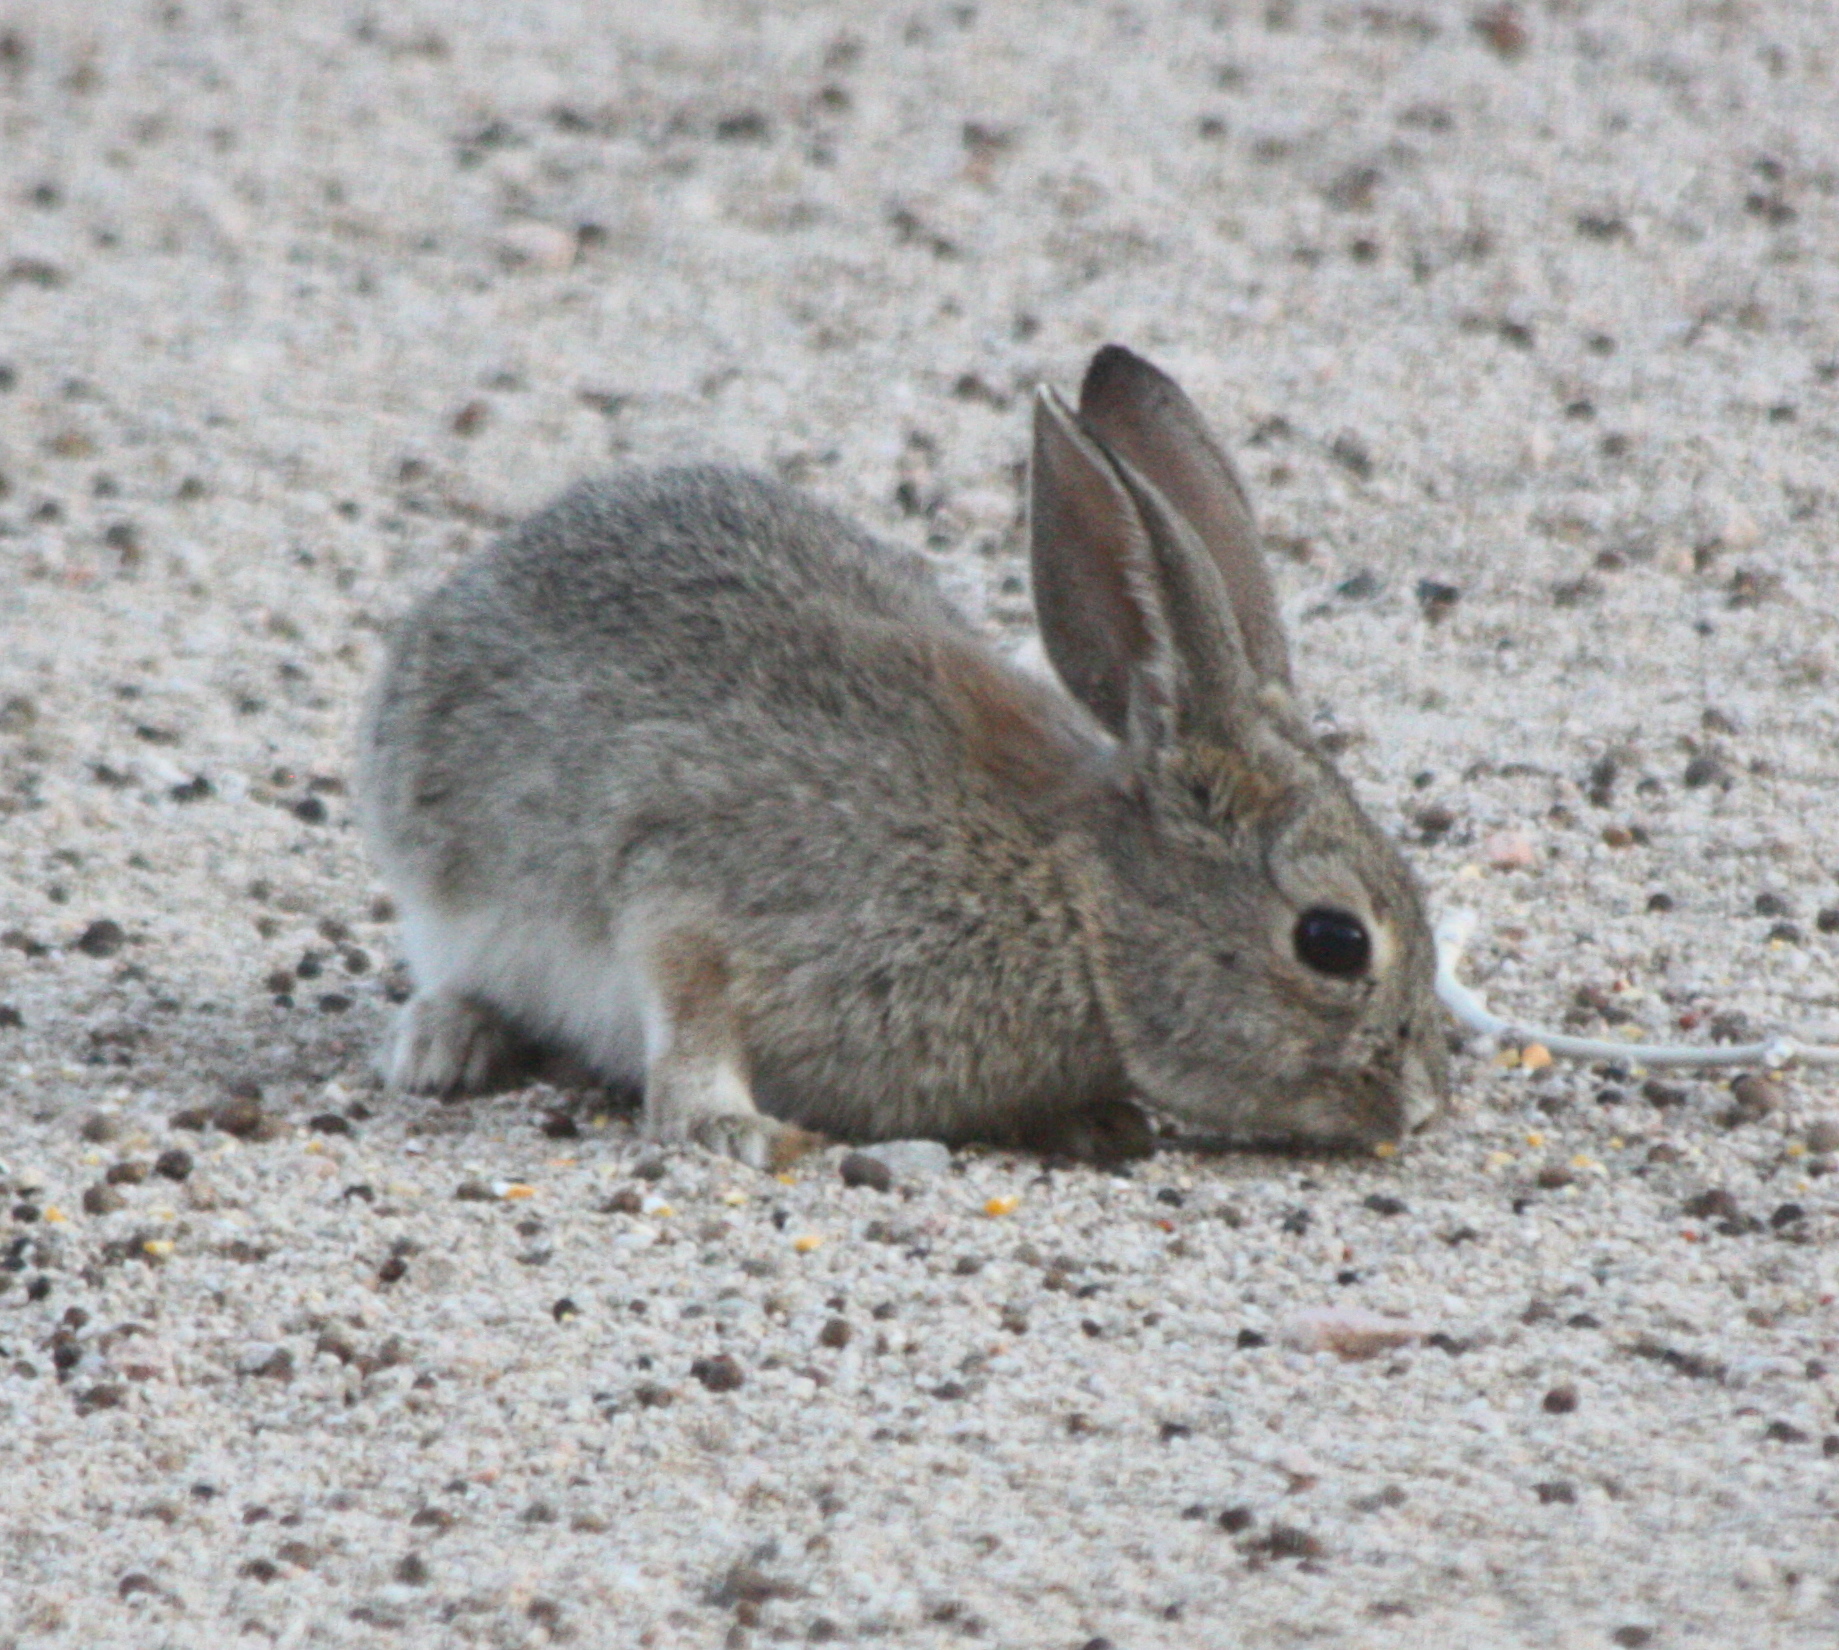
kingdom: Animalia
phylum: Chordata
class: Mammalia
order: Lagomorpha
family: Leporidae
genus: Sylvilagus
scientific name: Sylvilagus audubonii
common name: Desert cottontail
